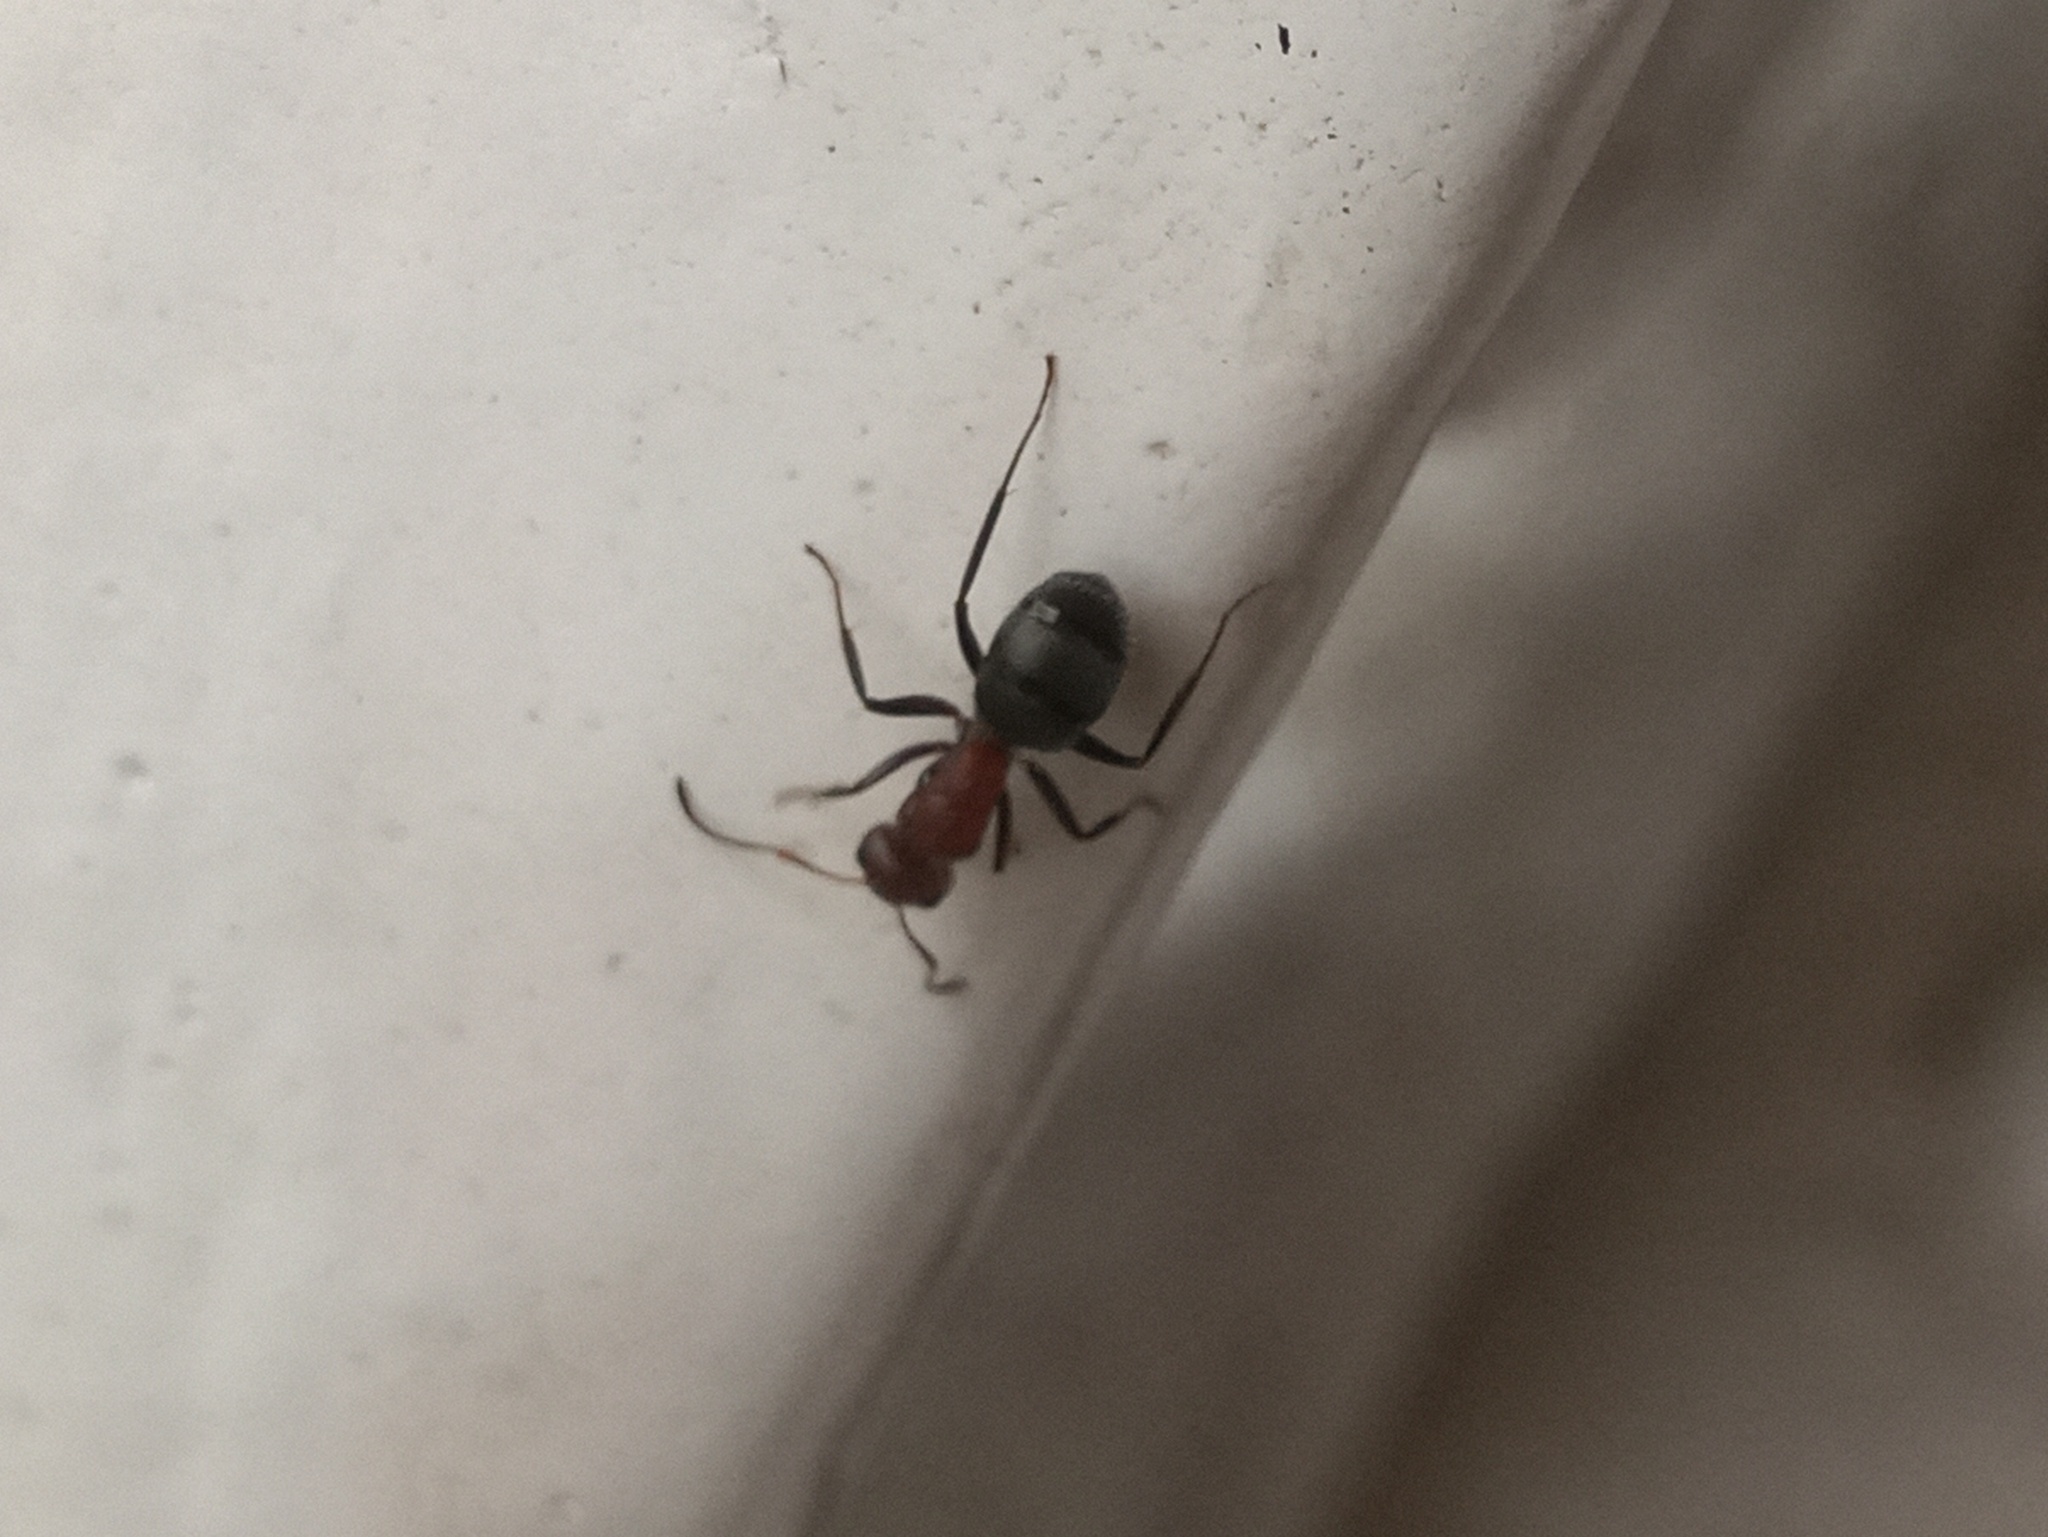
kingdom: Animalia
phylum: Arthropoda
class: Insecta
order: Hymenoptera
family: Formicidae
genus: Camponotus
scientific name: Camponotus planatus
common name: Compact carpenter ant
